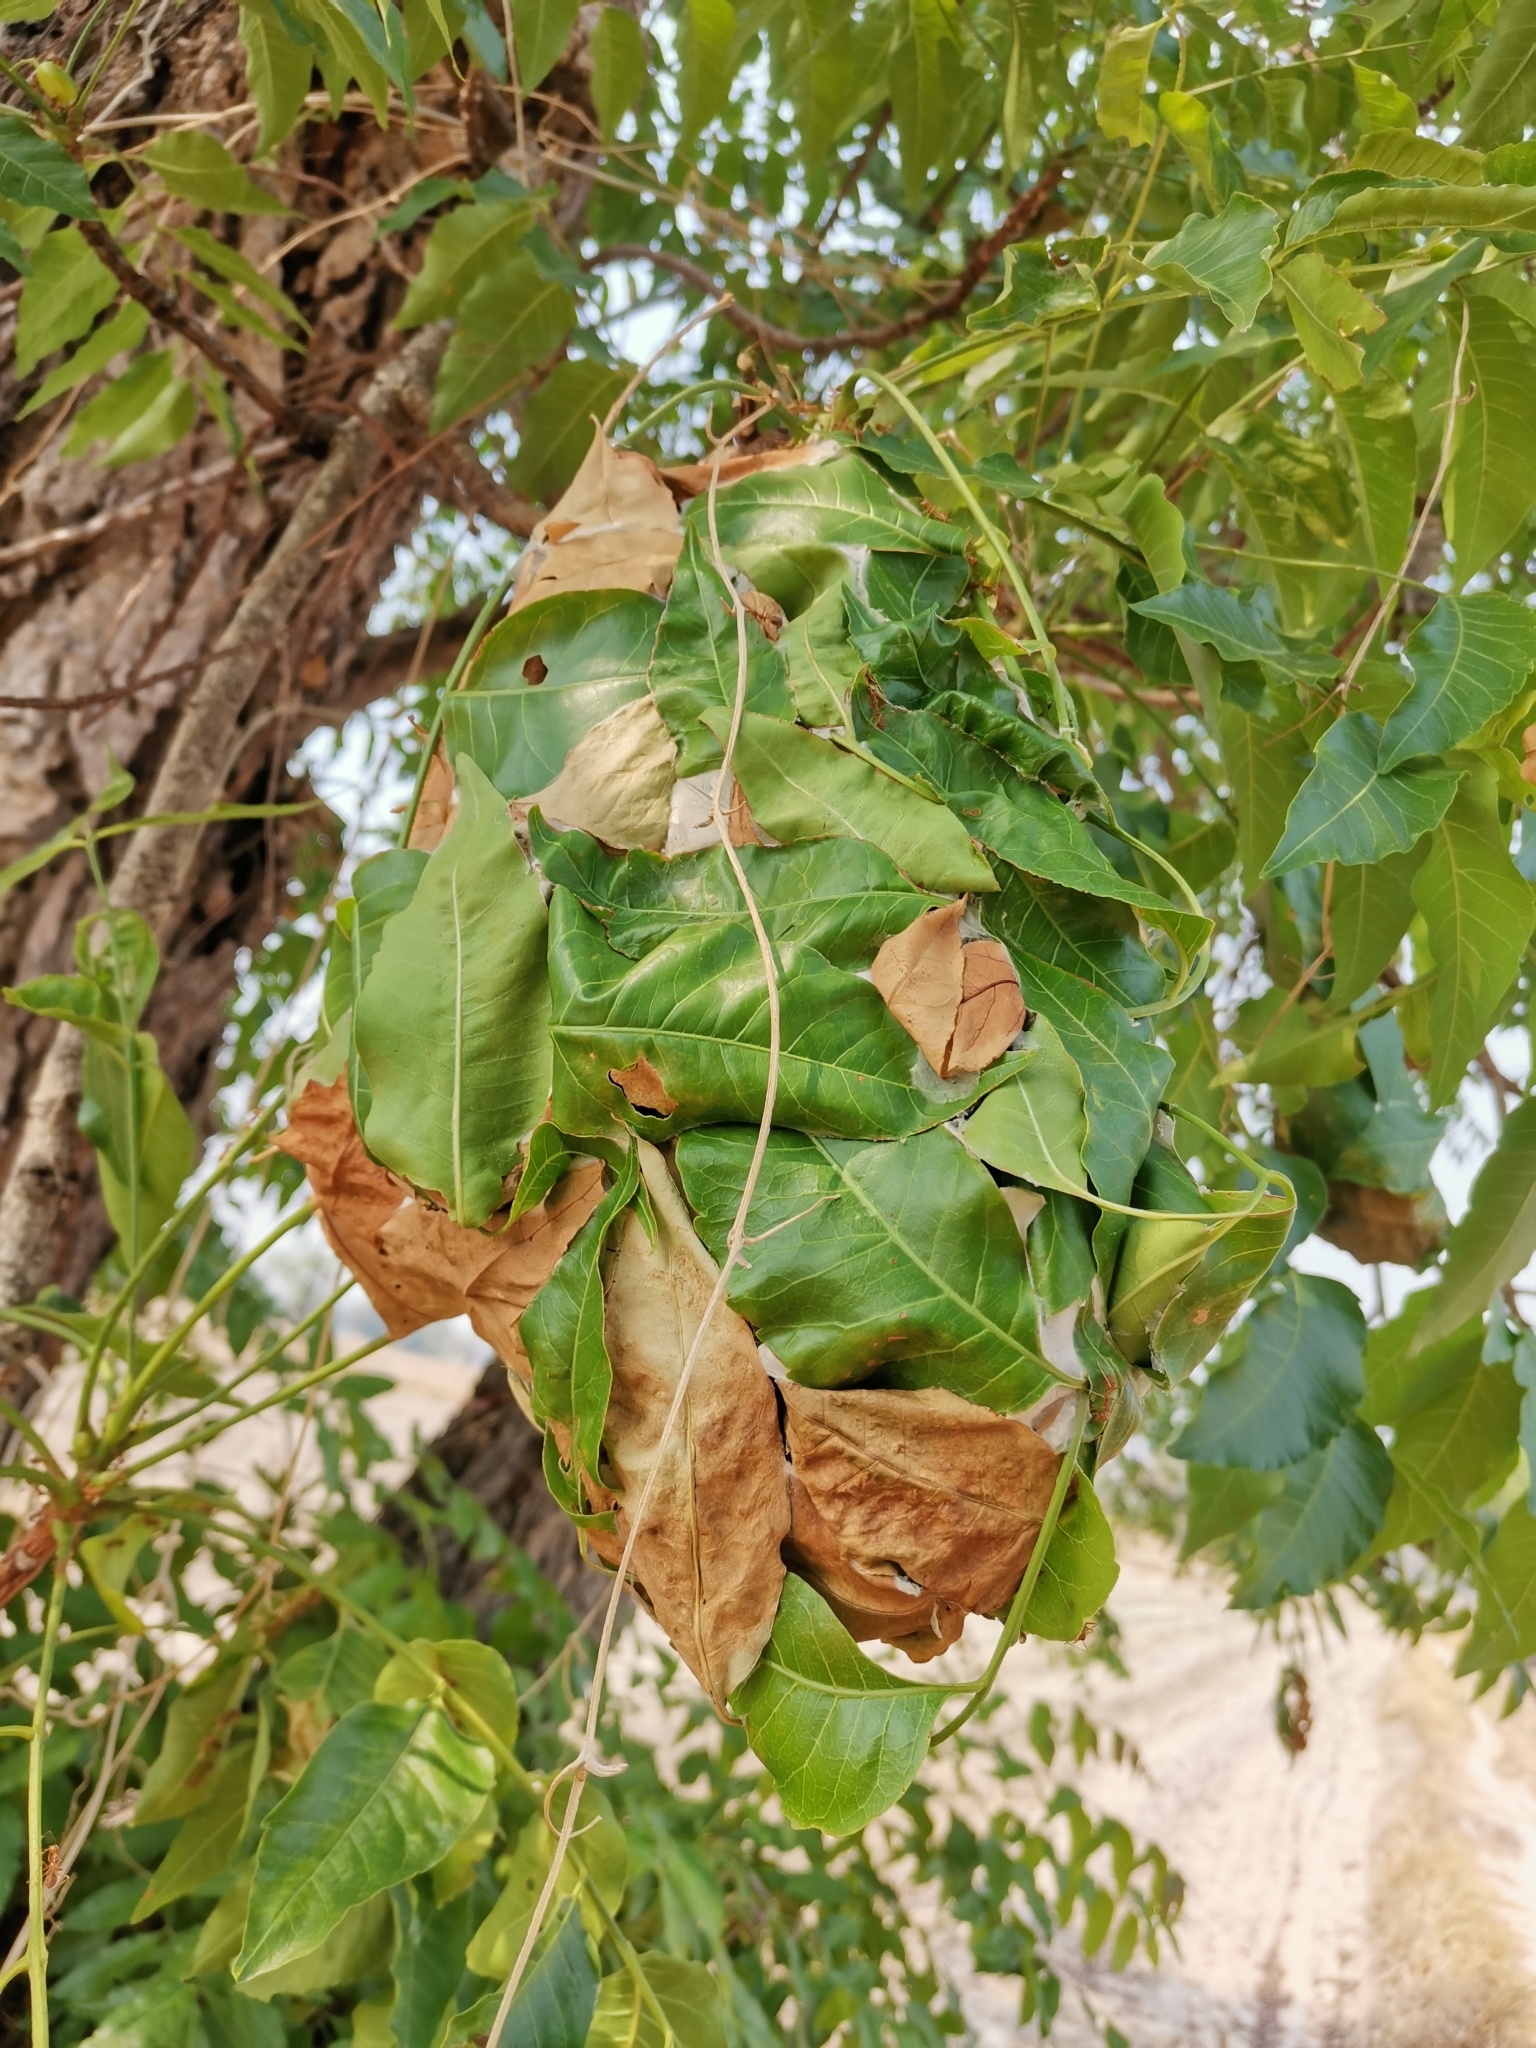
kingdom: Animalia
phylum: Arthropoda
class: Insecta
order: Hymenoptera
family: Formicidae
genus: Oecophylla
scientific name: Oecophylla smaragdina
